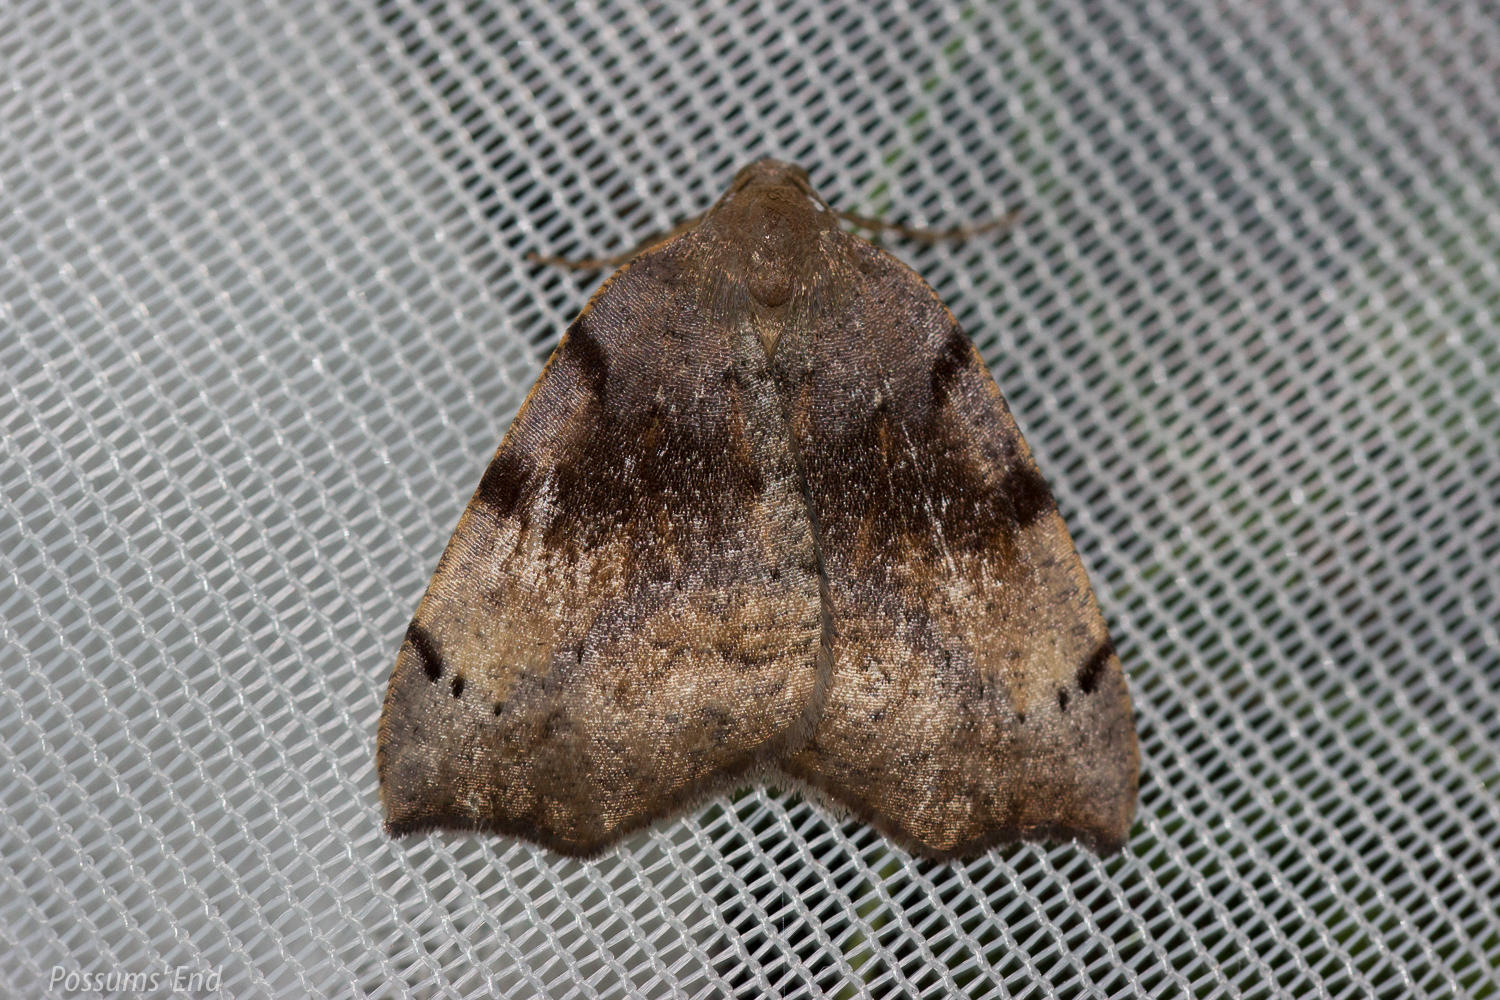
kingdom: Animalia
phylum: Arthropoda
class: Insecta
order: Lepidoptera
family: Geometridae
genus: Sestra
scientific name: Sestra flexata
